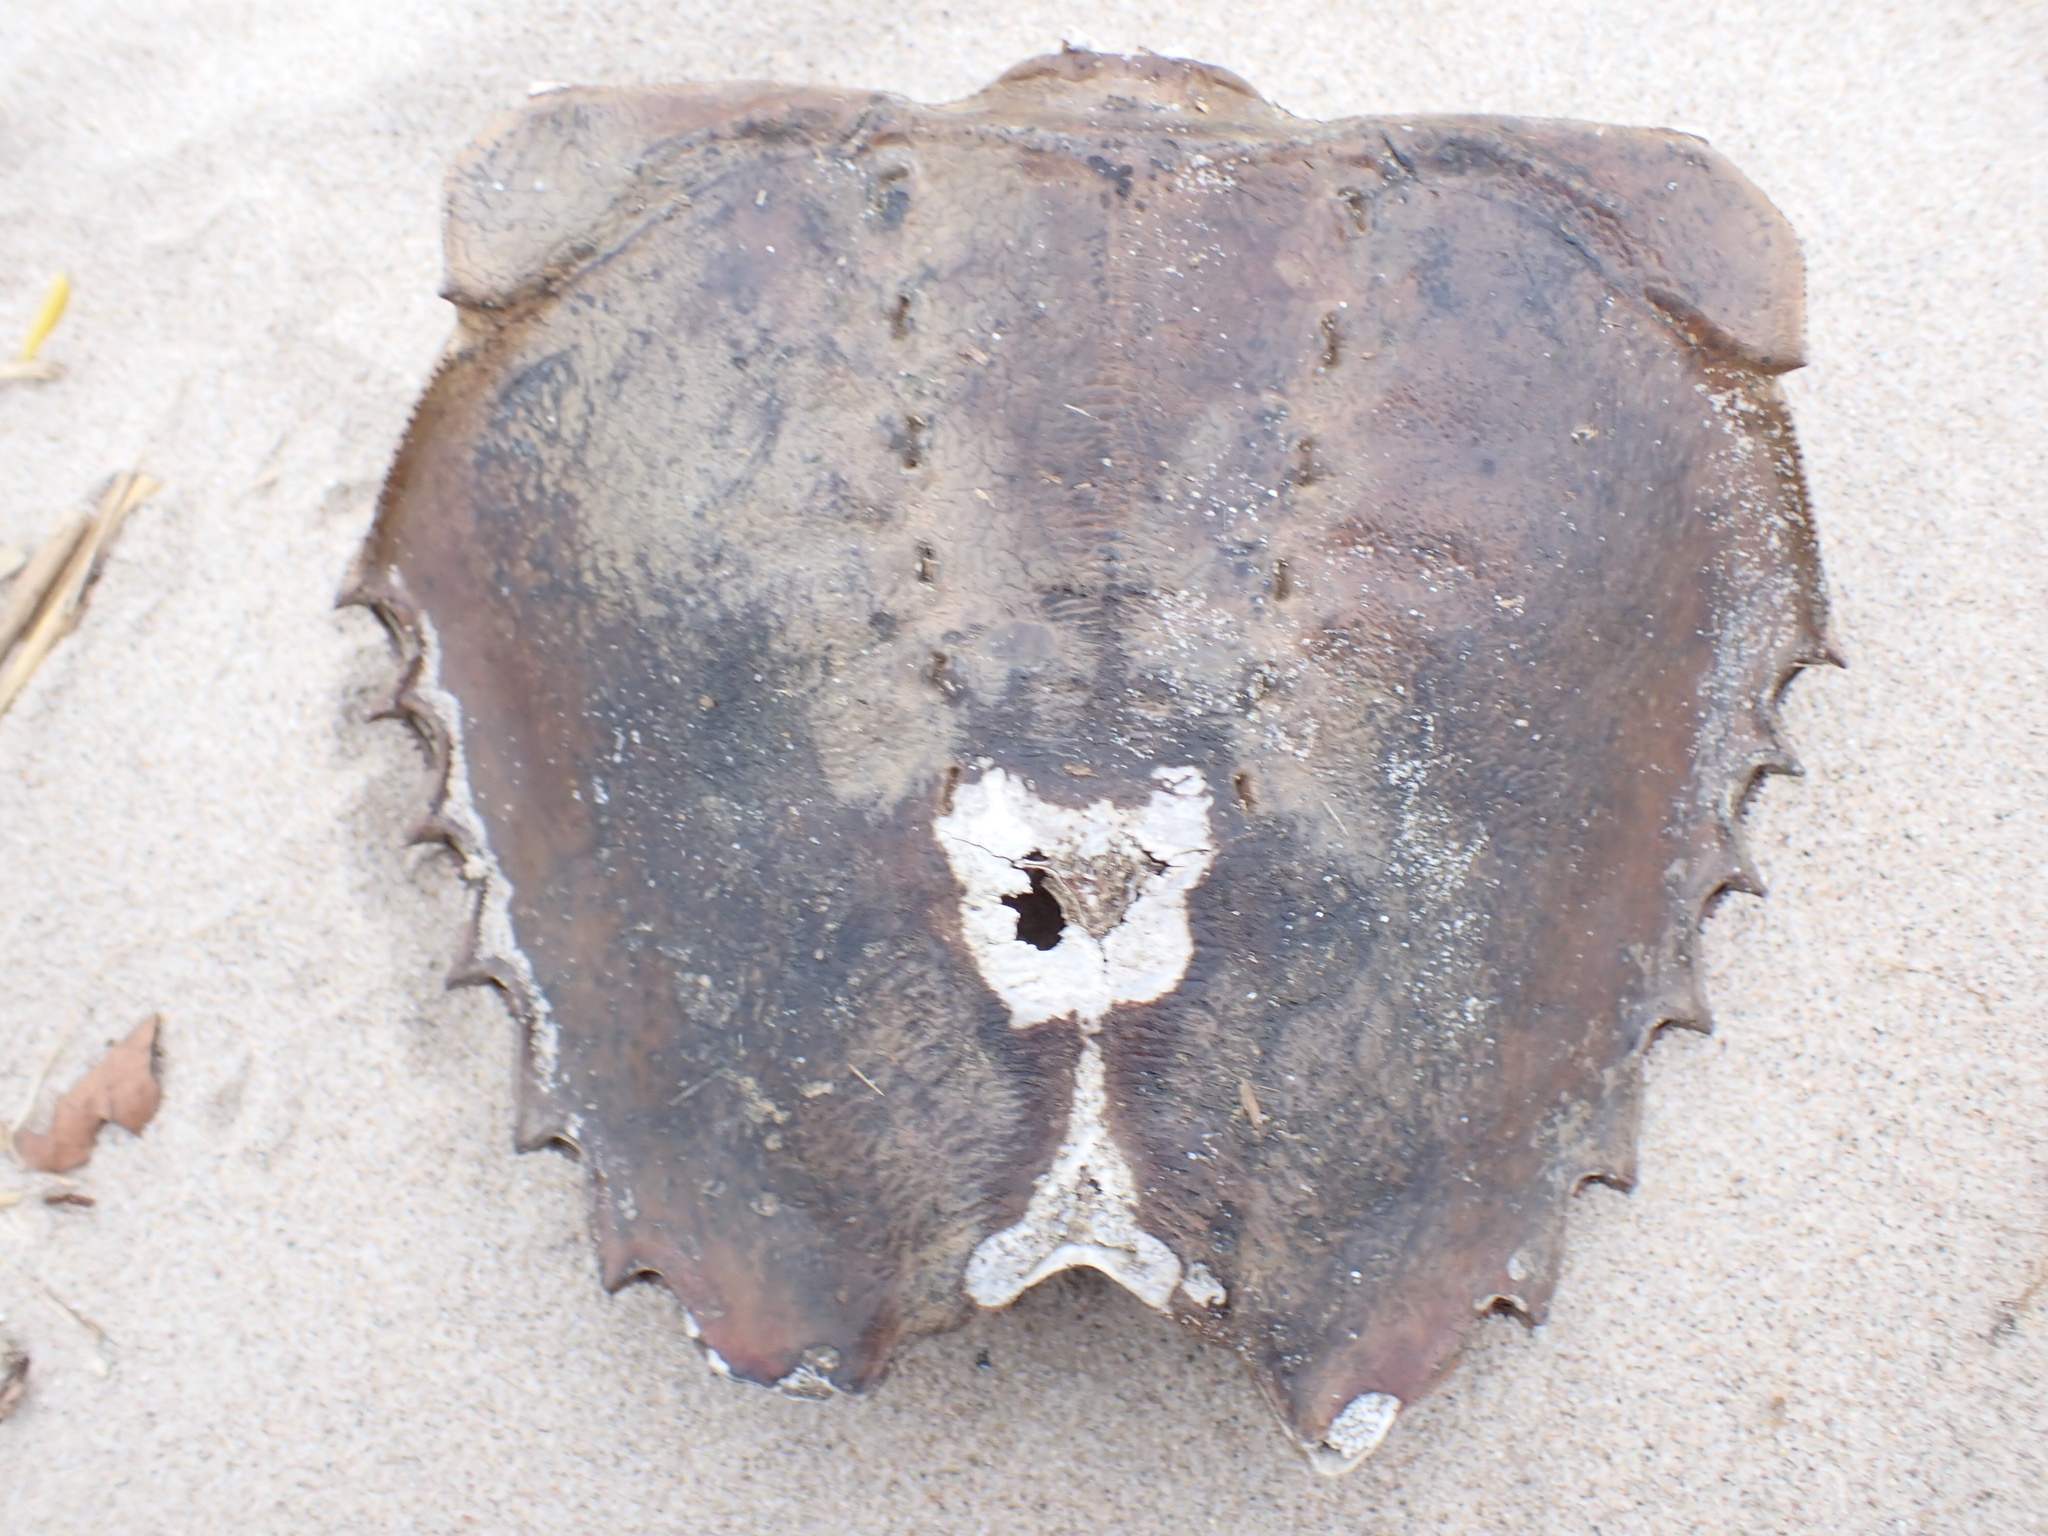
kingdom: Animalia
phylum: Arthropoda
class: Merostomata
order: Xiphosurida
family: Limulidae
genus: Limulus
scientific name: Limulus polyphemus
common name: Horseshoe crab
